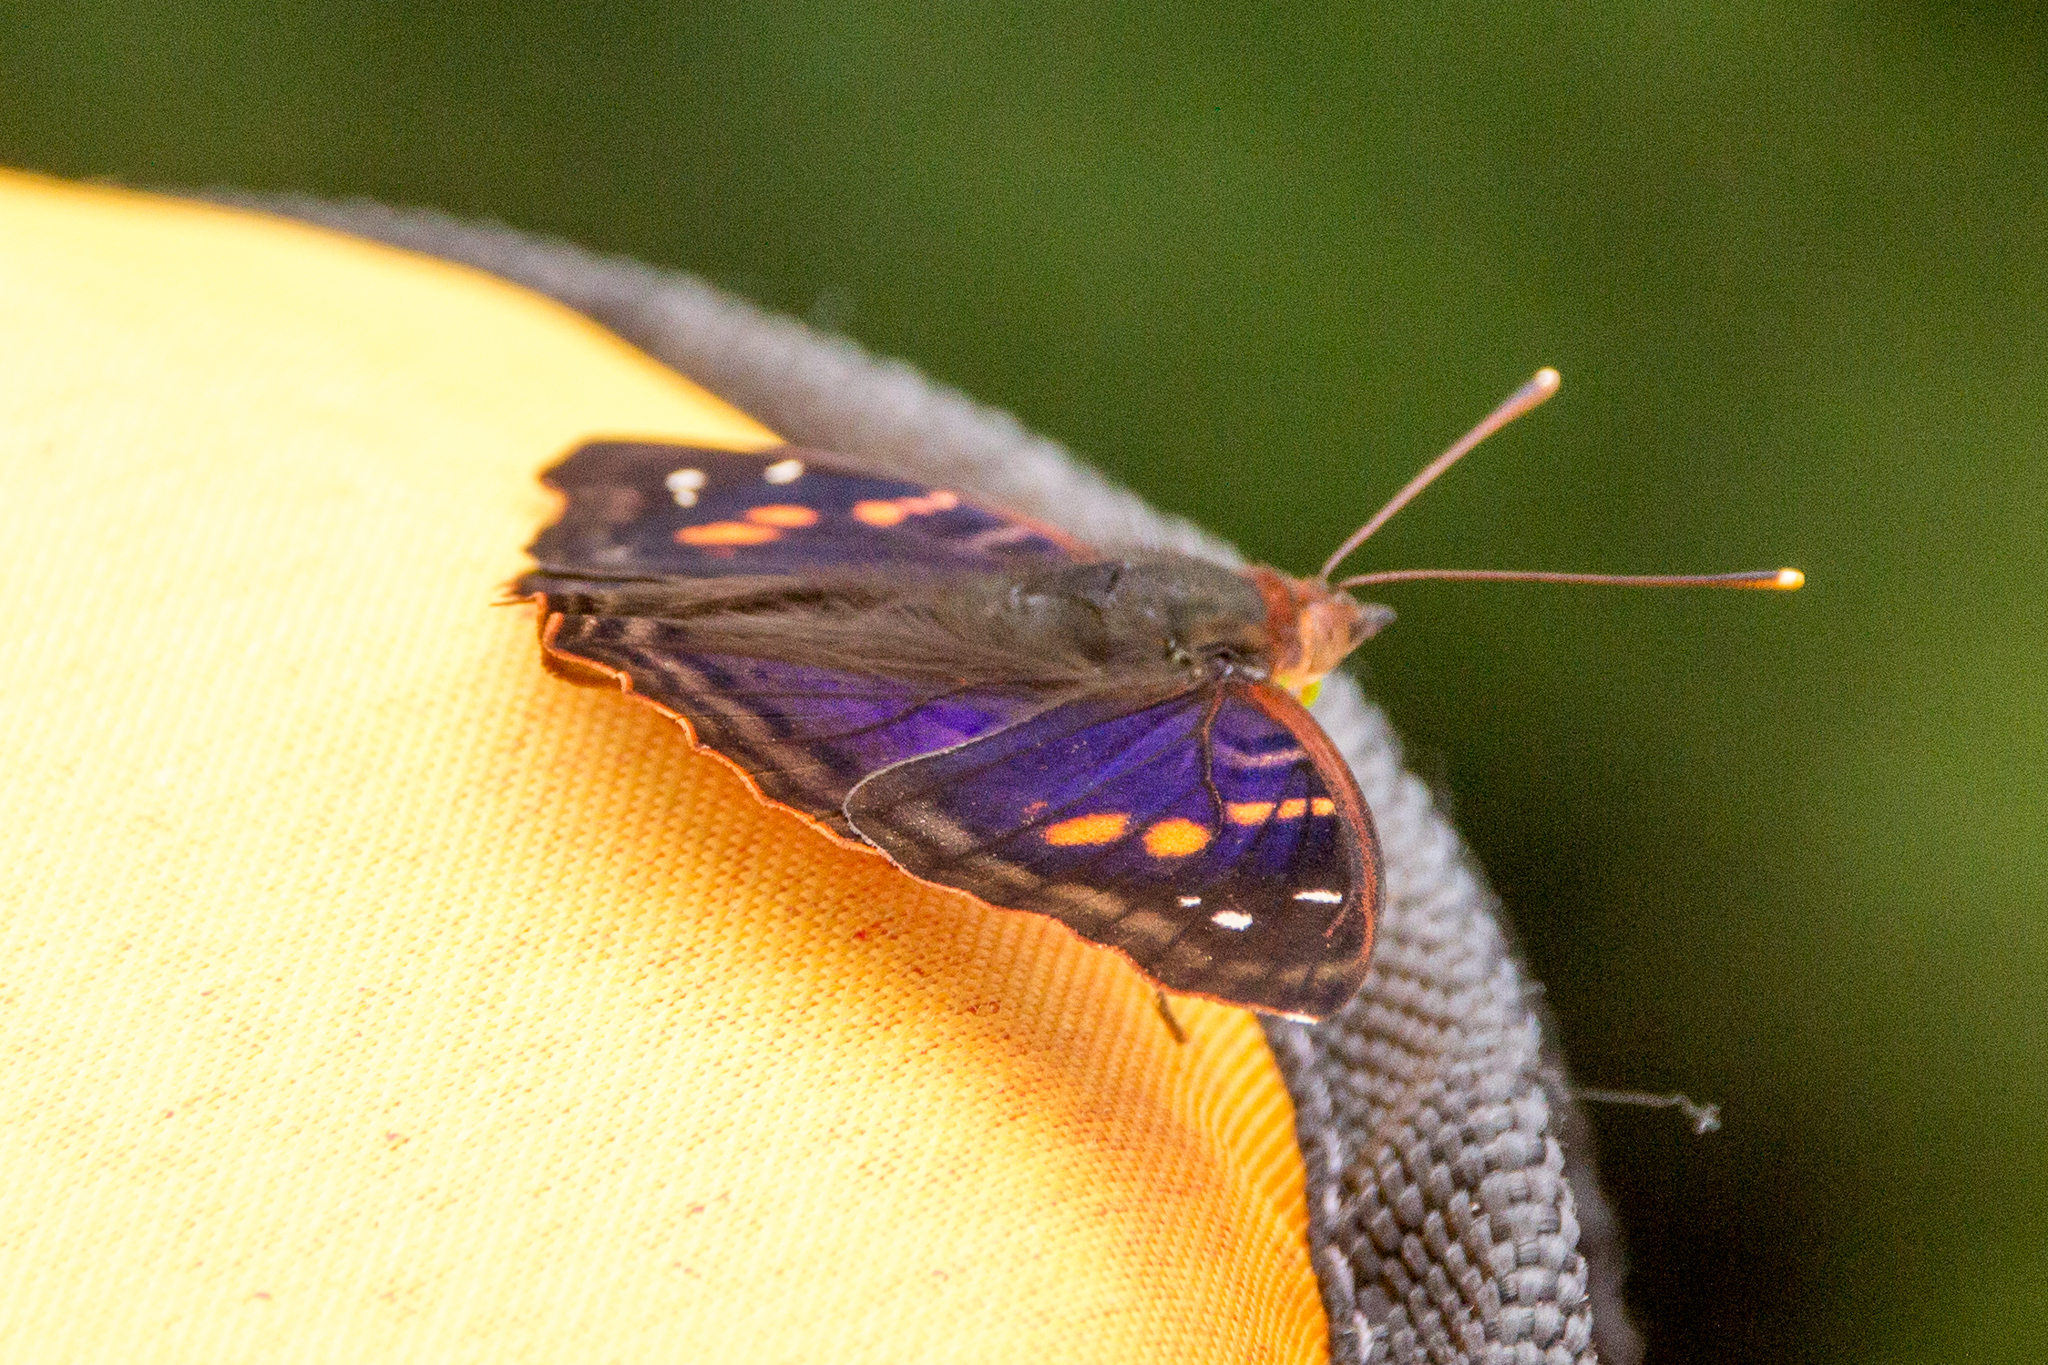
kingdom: Animalia
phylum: Arthropoda
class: Insecta
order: Lepidoptera
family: Nymphalidae
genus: Doxocopa
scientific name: Doxocopa agathina
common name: Agathina emperor
